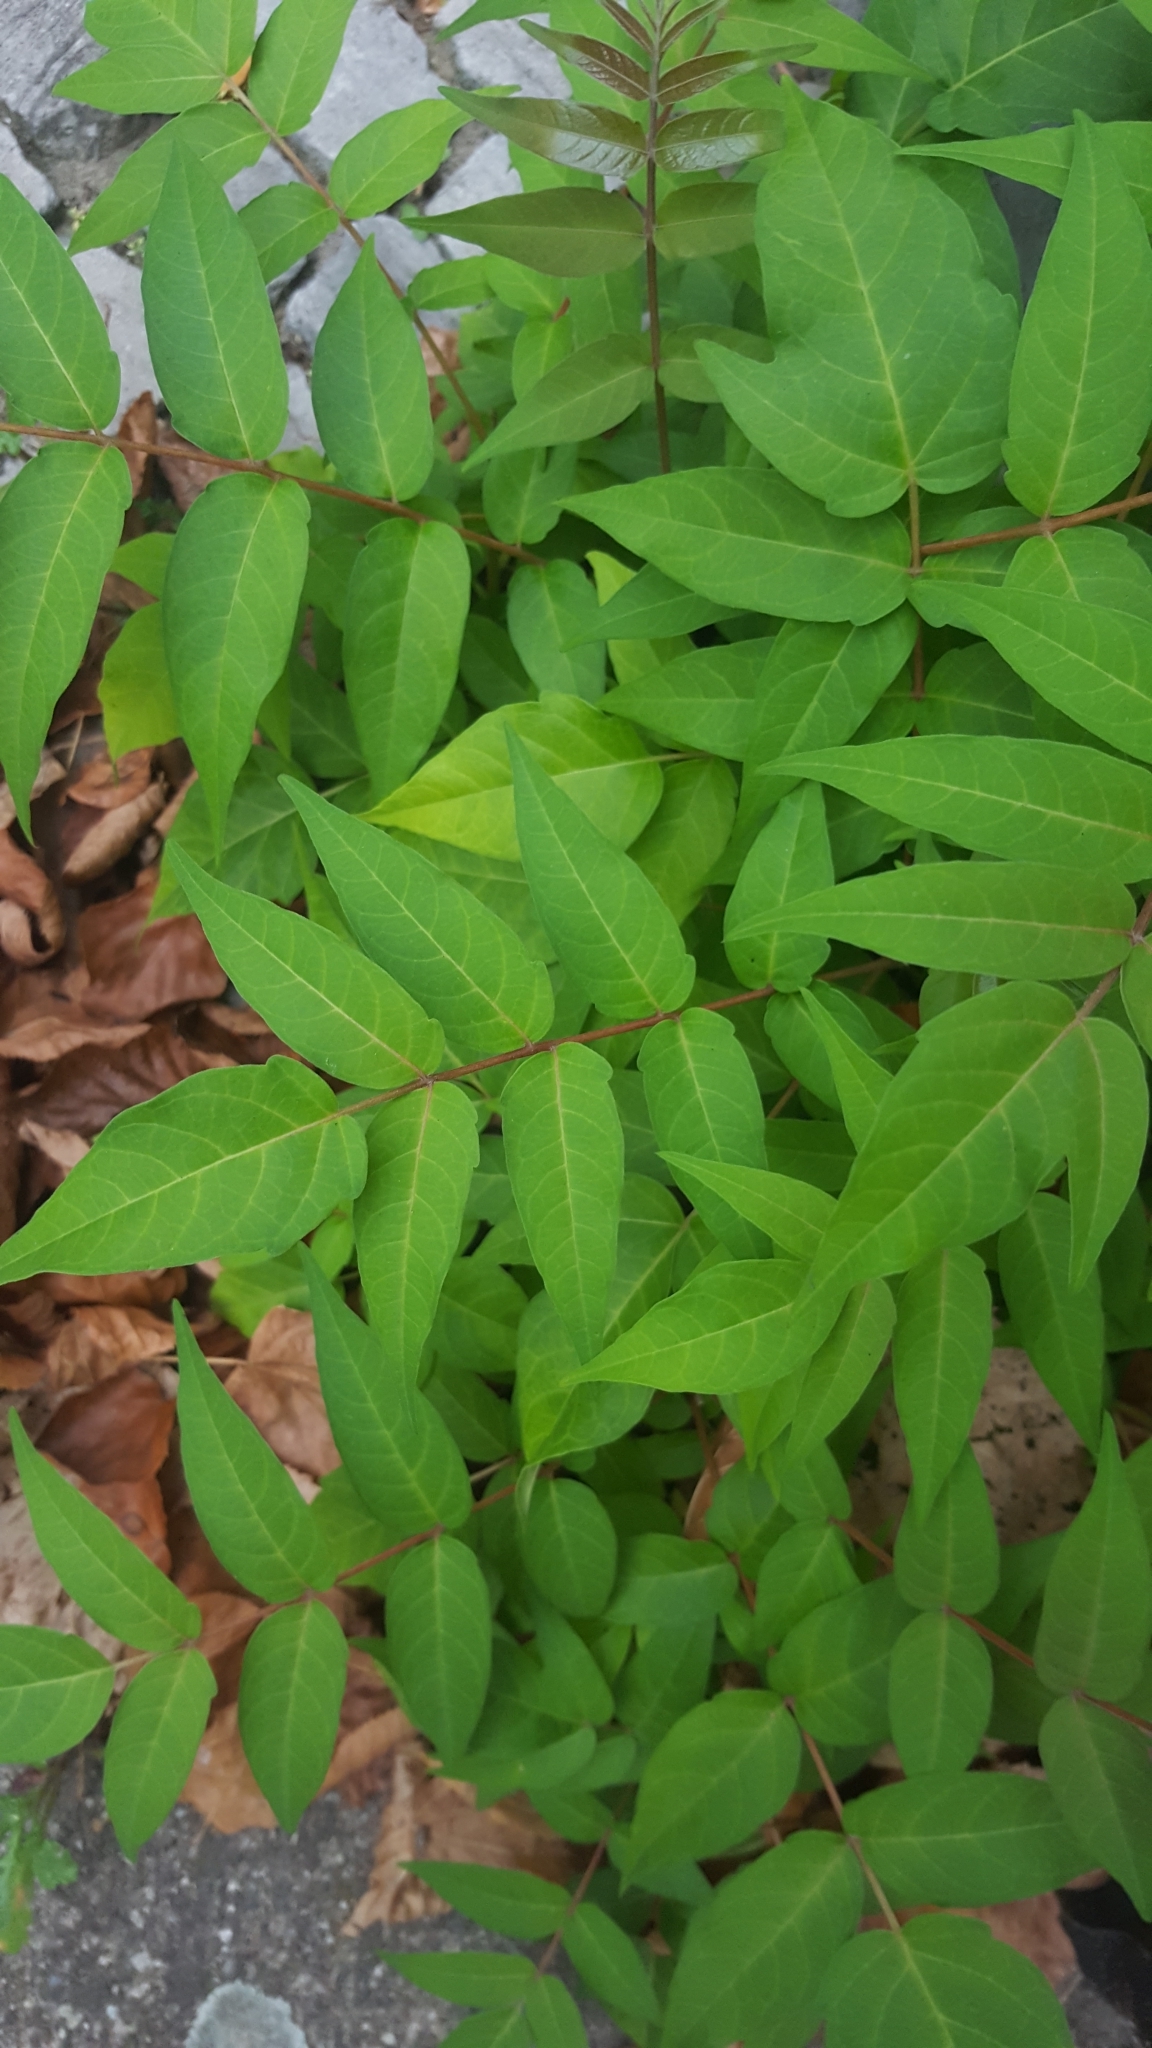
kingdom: Plantae
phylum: Tracheophyta
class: Magnoliopsida
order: Sapindales
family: Simaroubaceae
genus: Ailanthus
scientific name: Ailanthus altissima
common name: Tree-of-heaven
